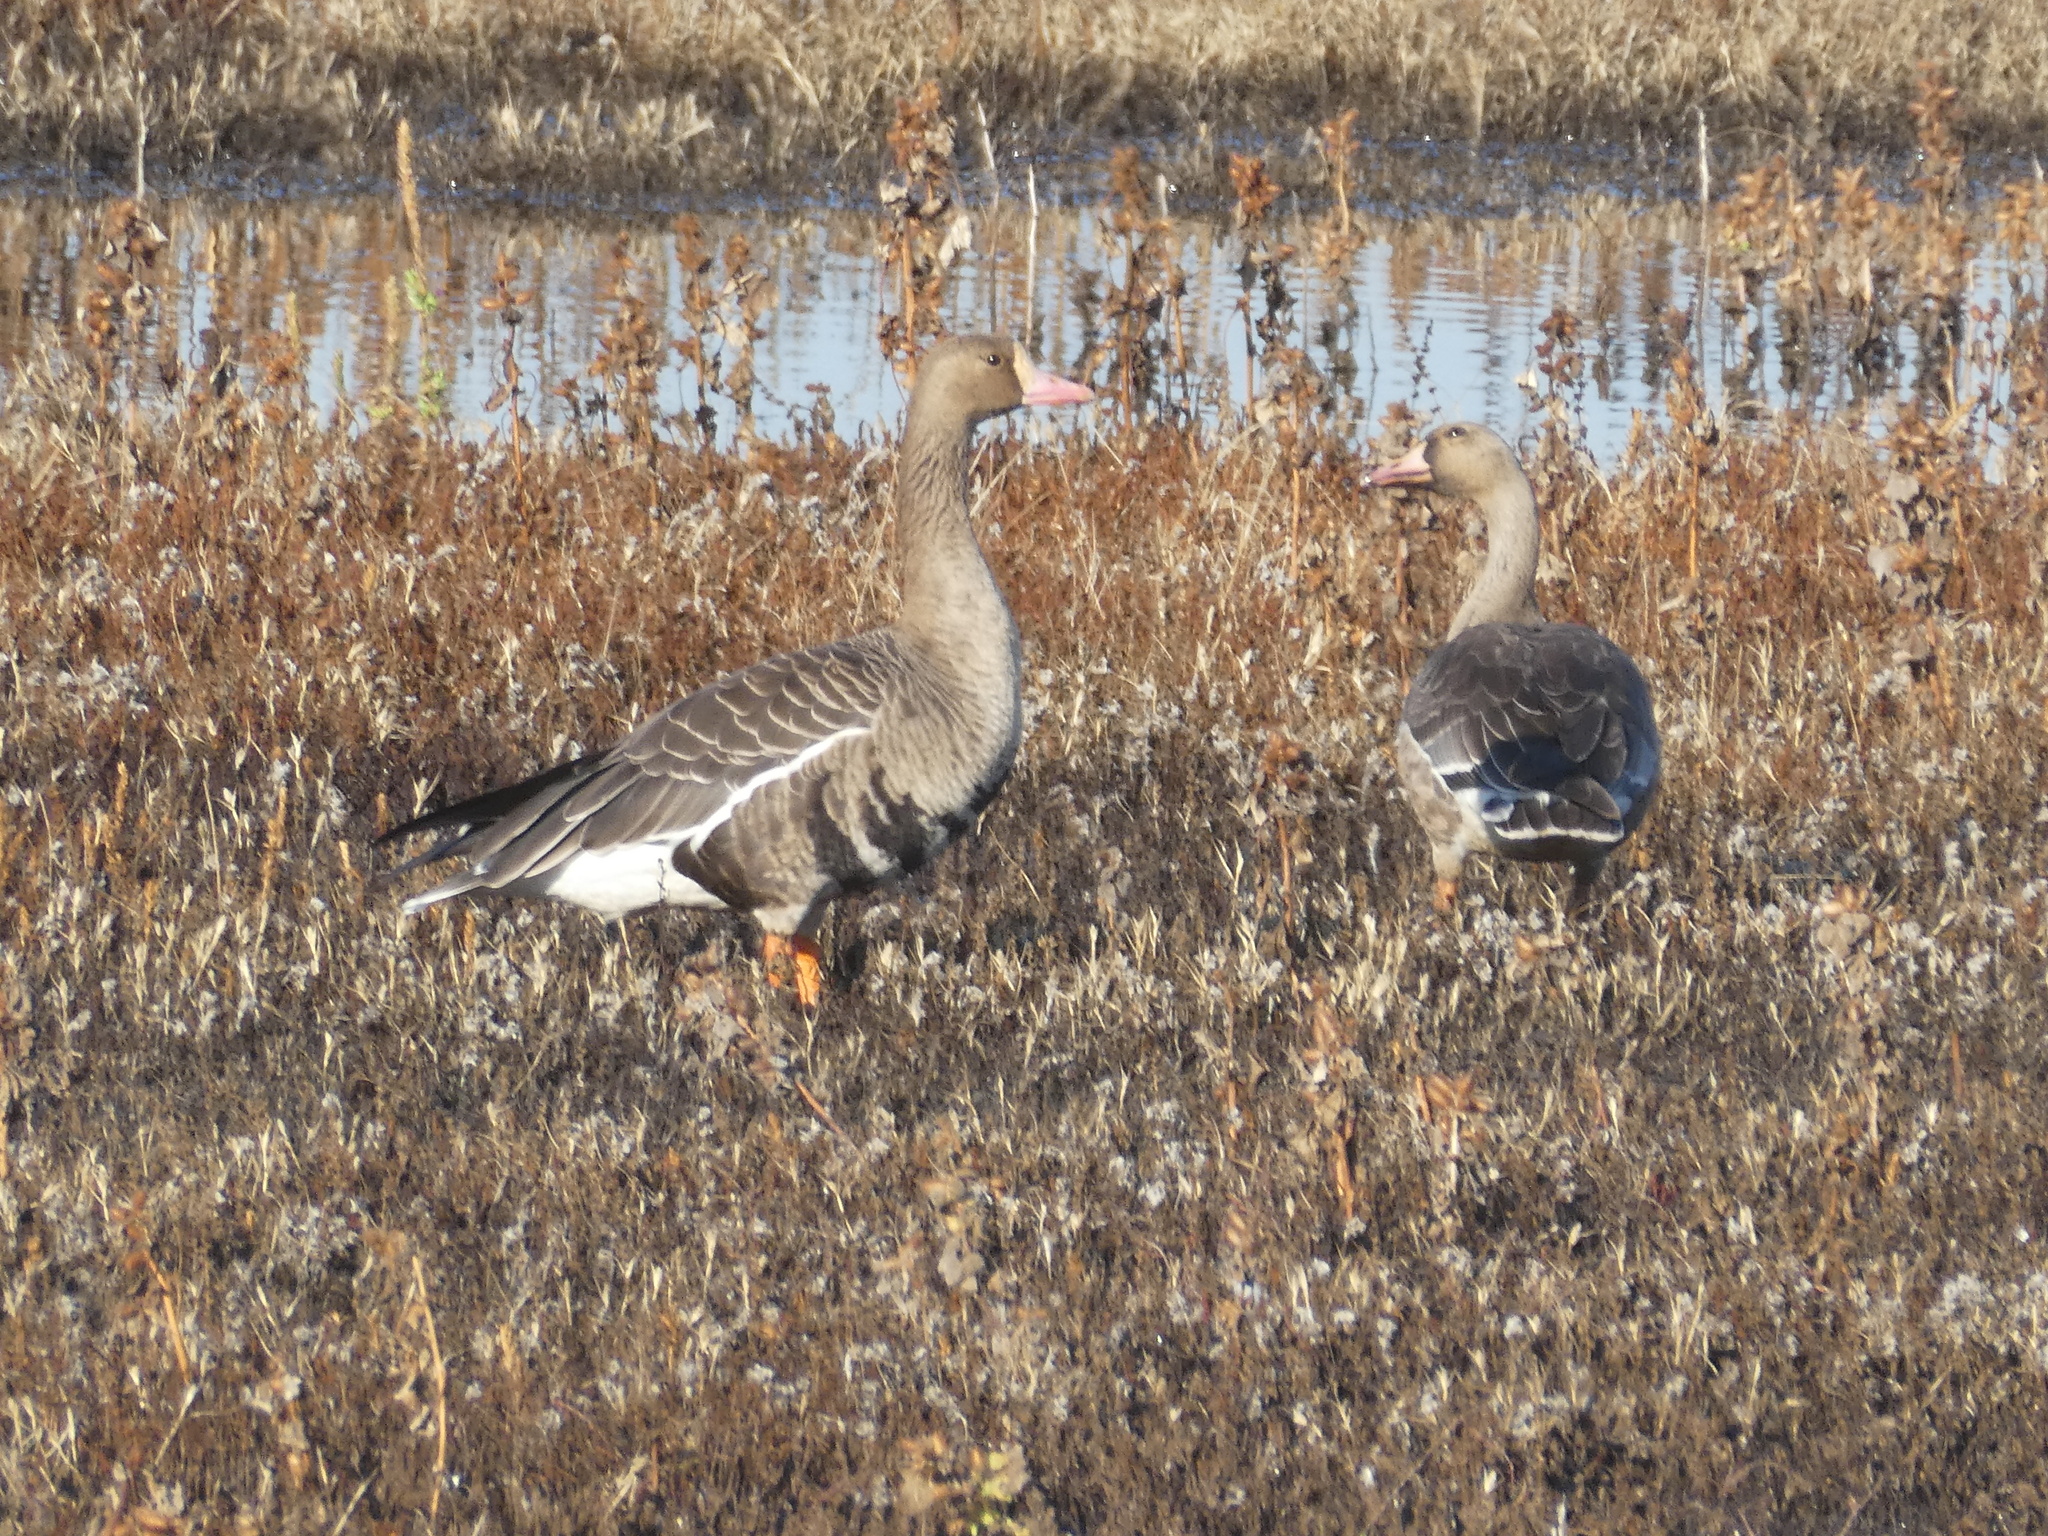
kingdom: Animalia
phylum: Chordata
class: Aves
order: Anseriformes
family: Anatidae
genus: Anser
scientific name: Anser albifrons
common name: Greater white-fronted goose
